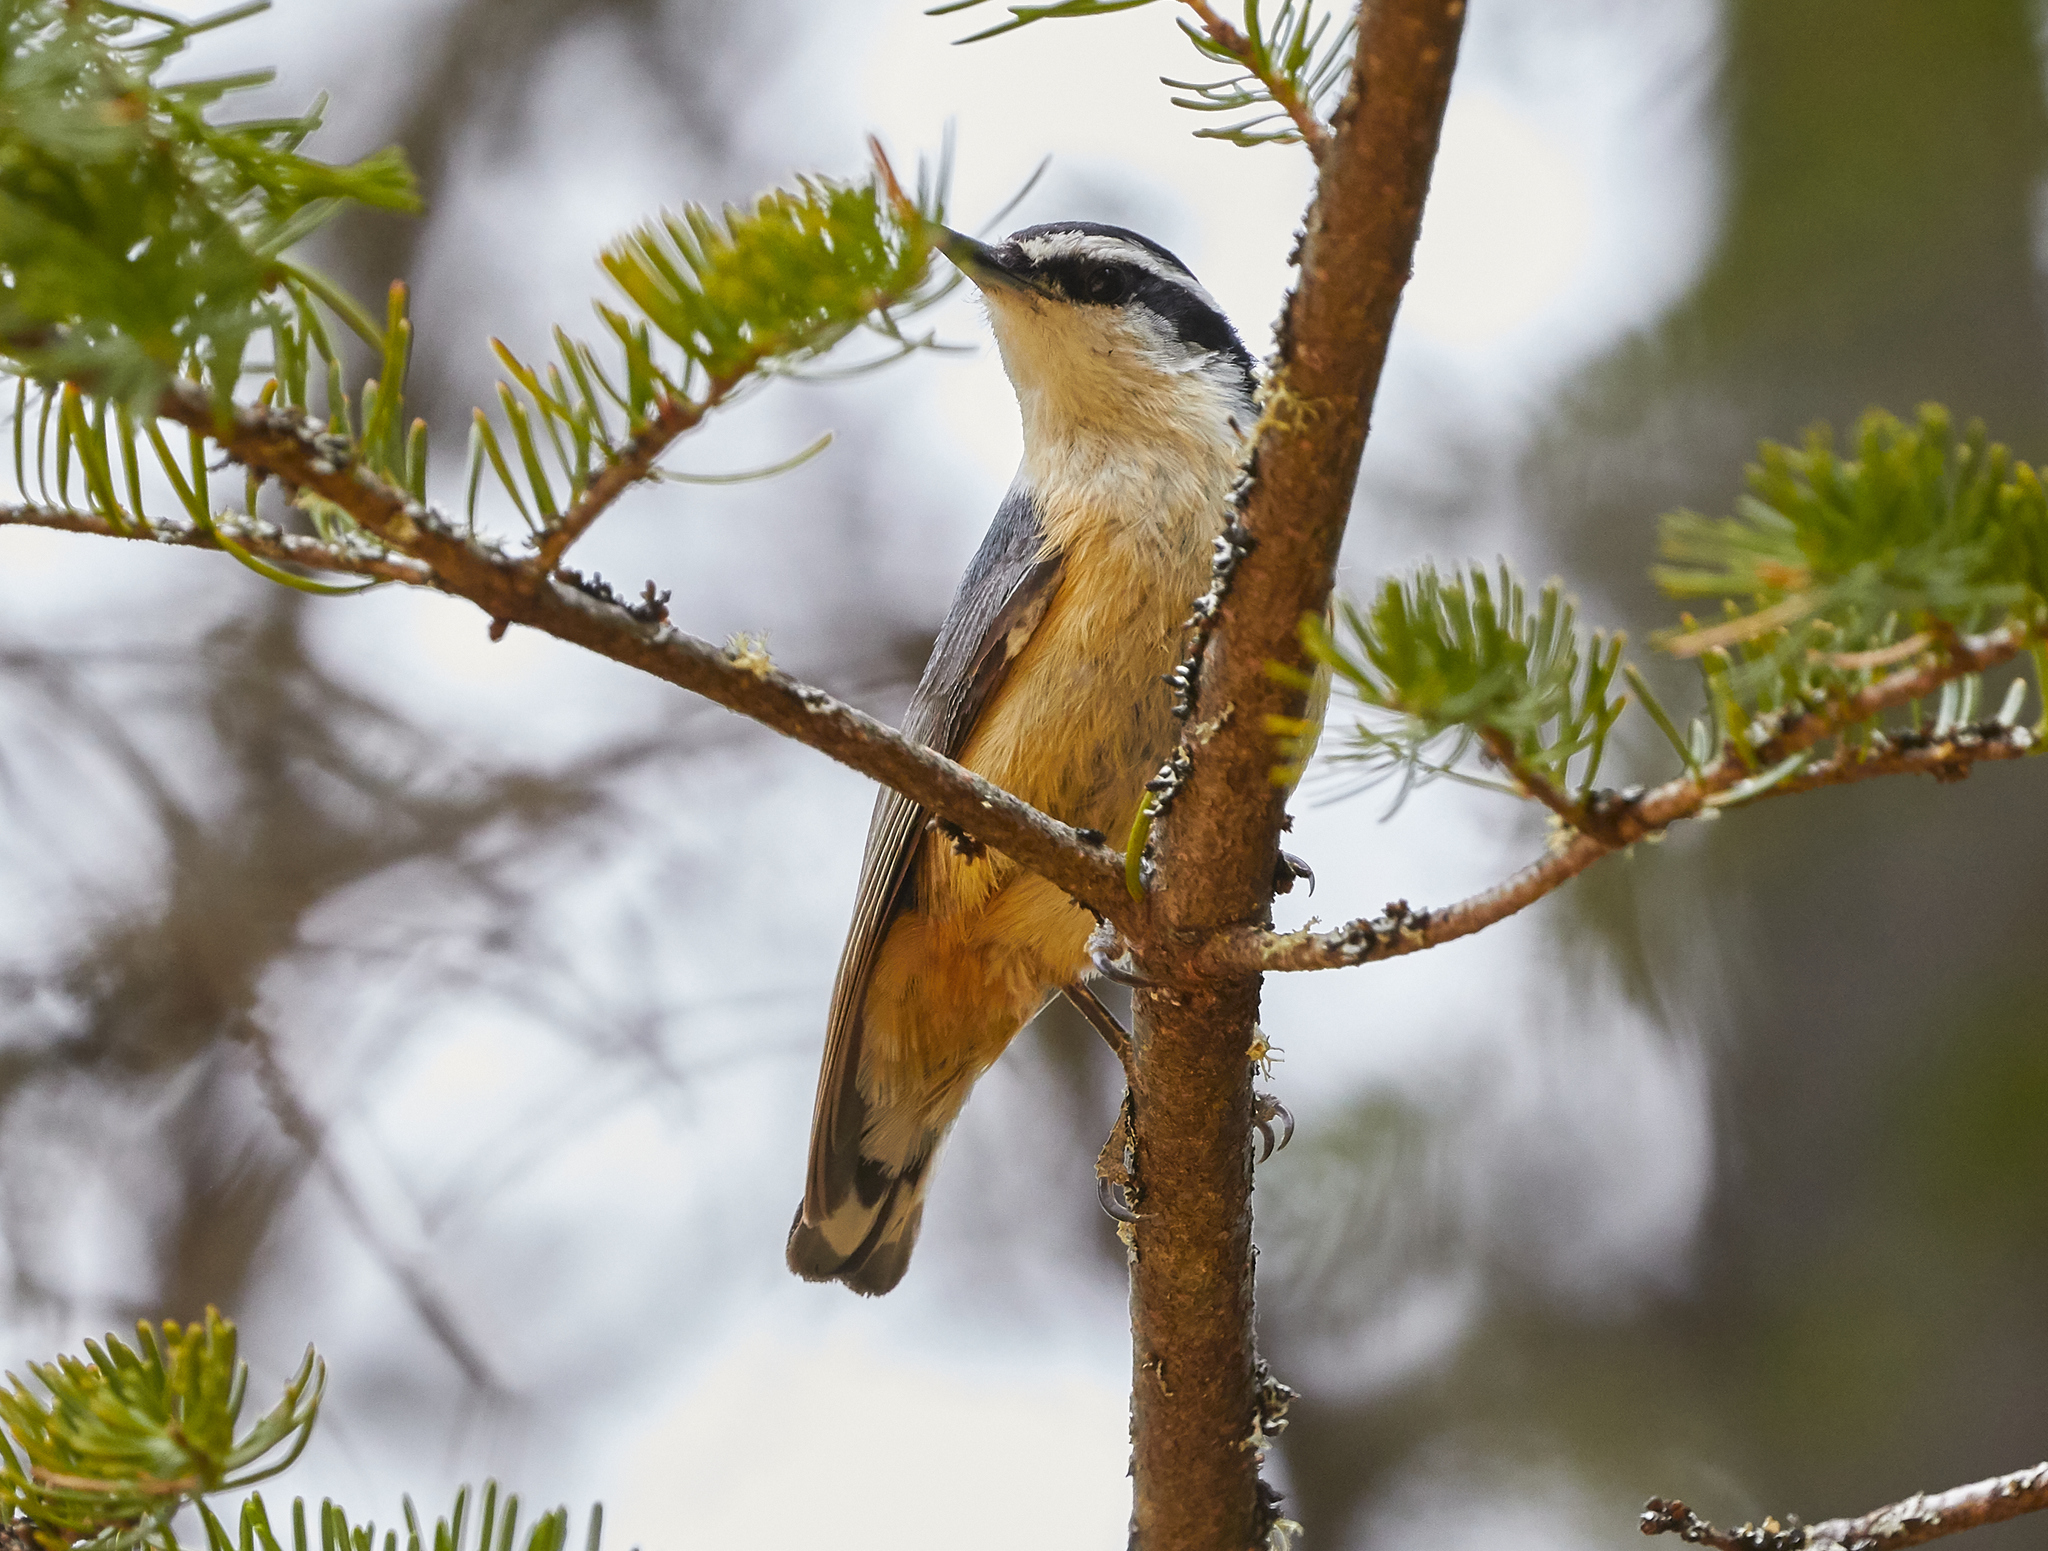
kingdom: Animalia
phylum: Chordata
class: Aves
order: Passeriformes
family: Sittidae
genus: Sitta
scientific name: Sitta canadensis
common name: Red-breasted nuthatch
